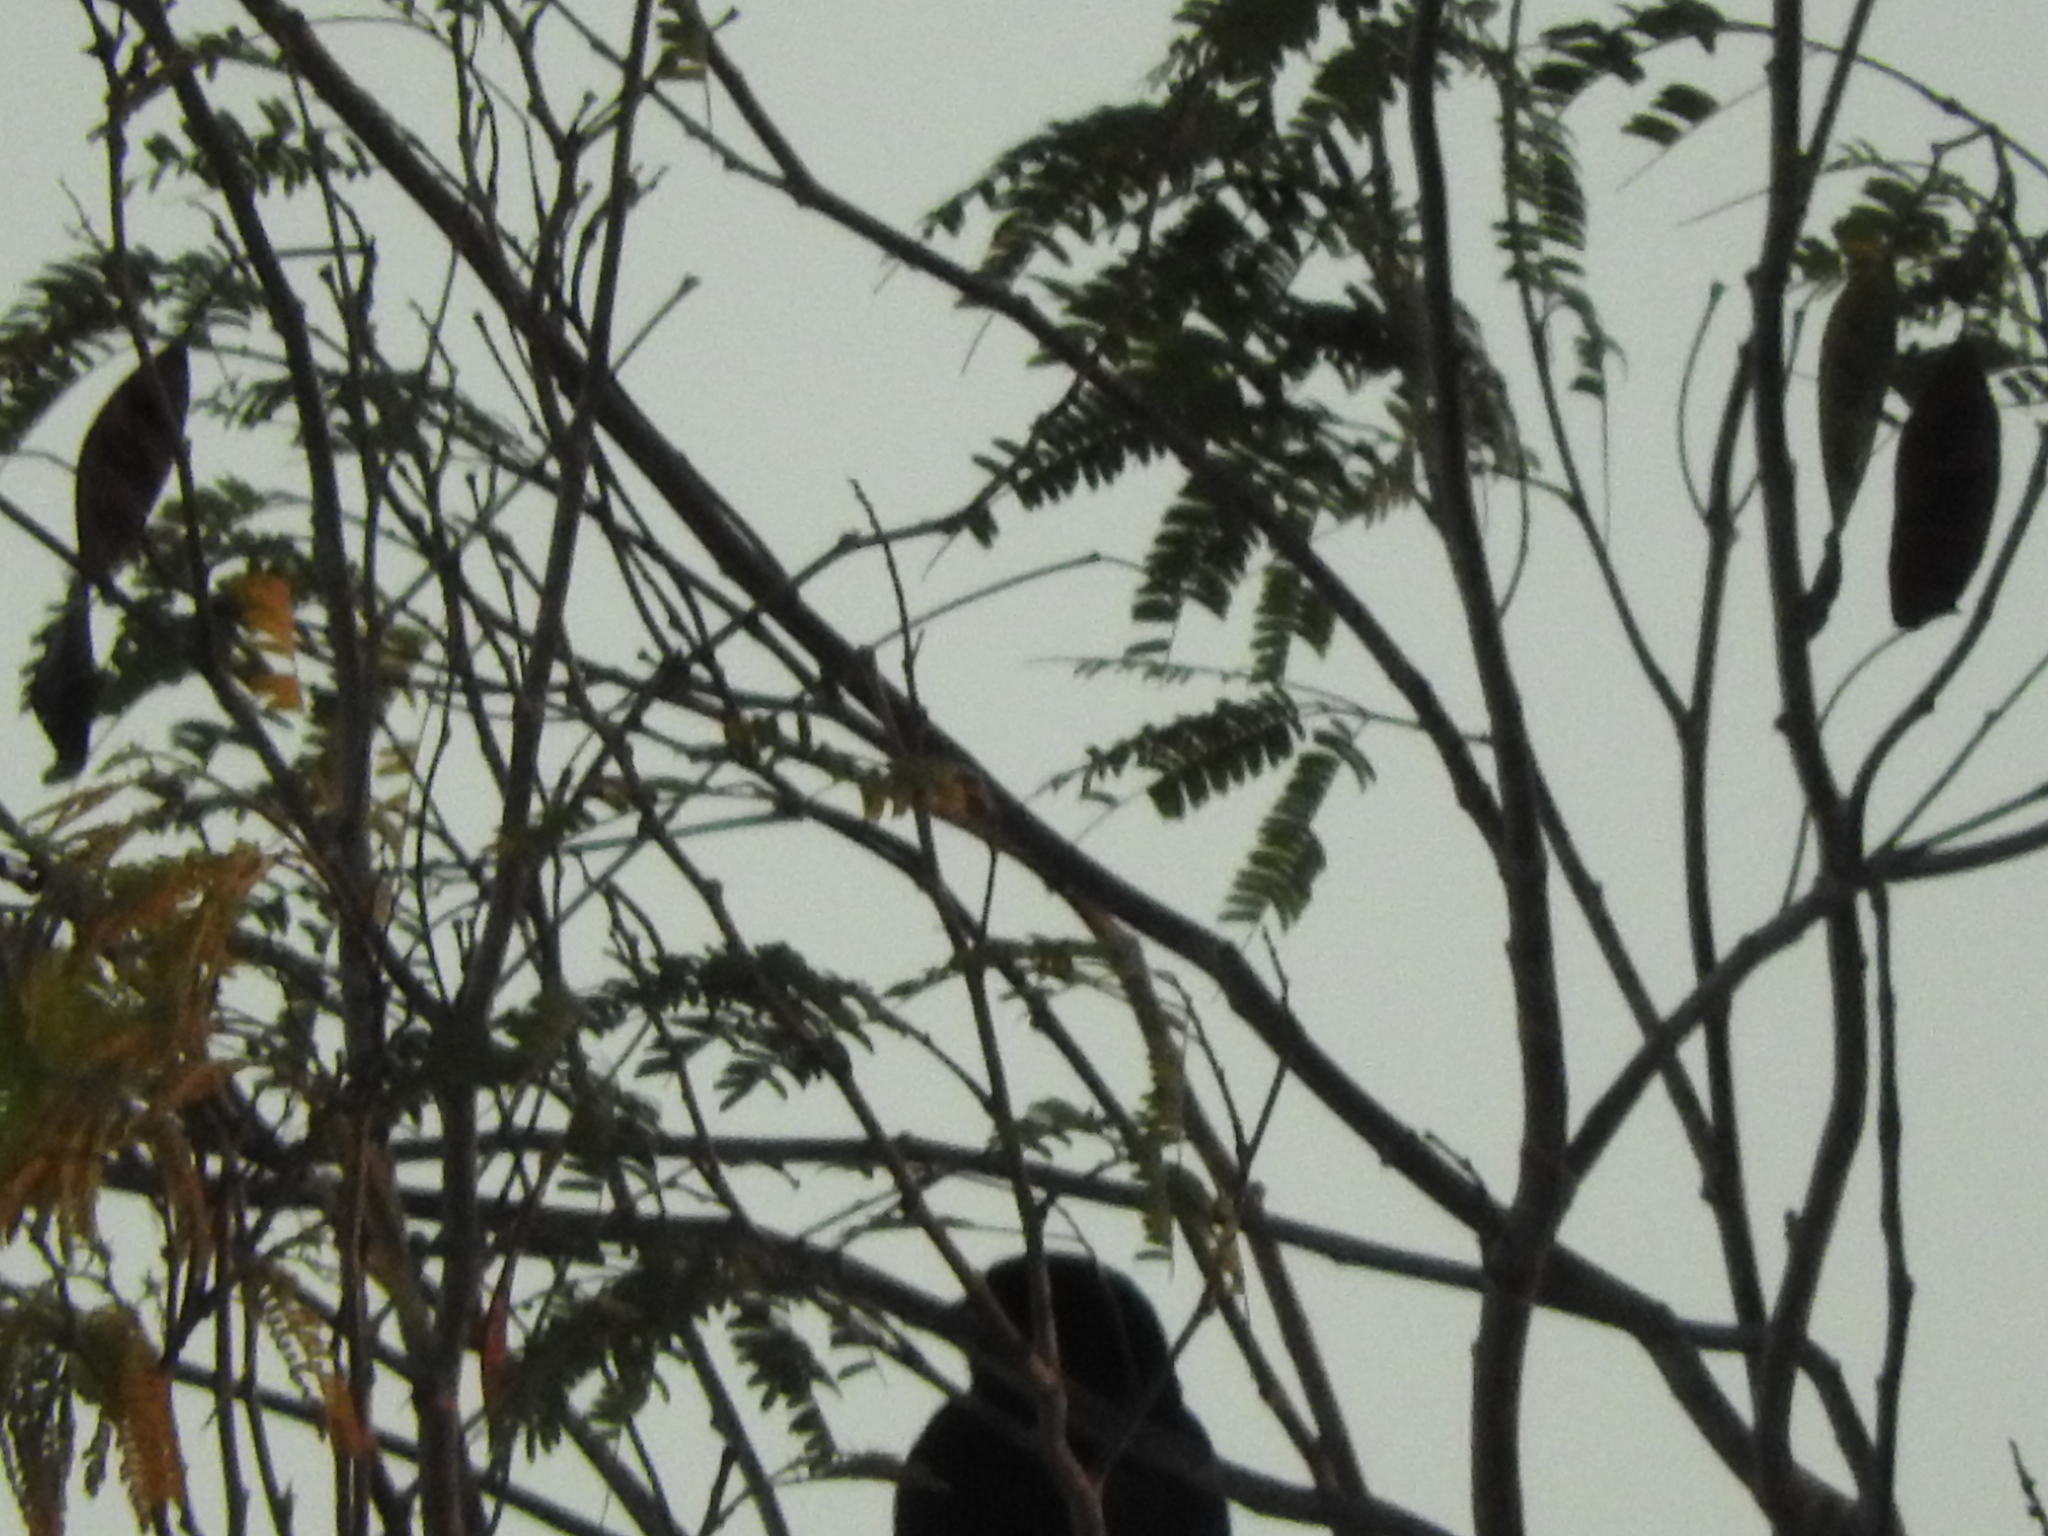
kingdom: Animalia
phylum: Chordata
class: Aves
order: Passeriformes
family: Icteridae
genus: Dives
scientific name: Dives dives
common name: Melodious blackbird
